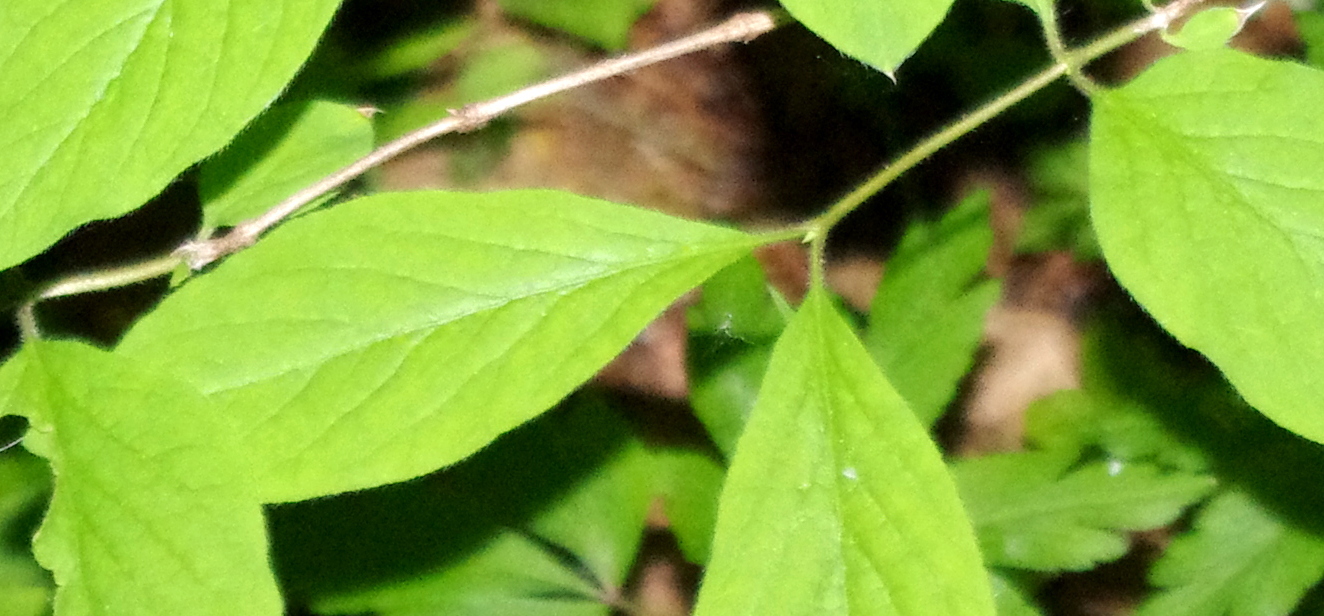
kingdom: Plantae
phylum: Tracheophyta
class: Magnoliopsida
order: Dipsacales
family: Caprifoliaceae
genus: Lonicera
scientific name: Lonicera xylosteum
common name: Fly honeysuckle
